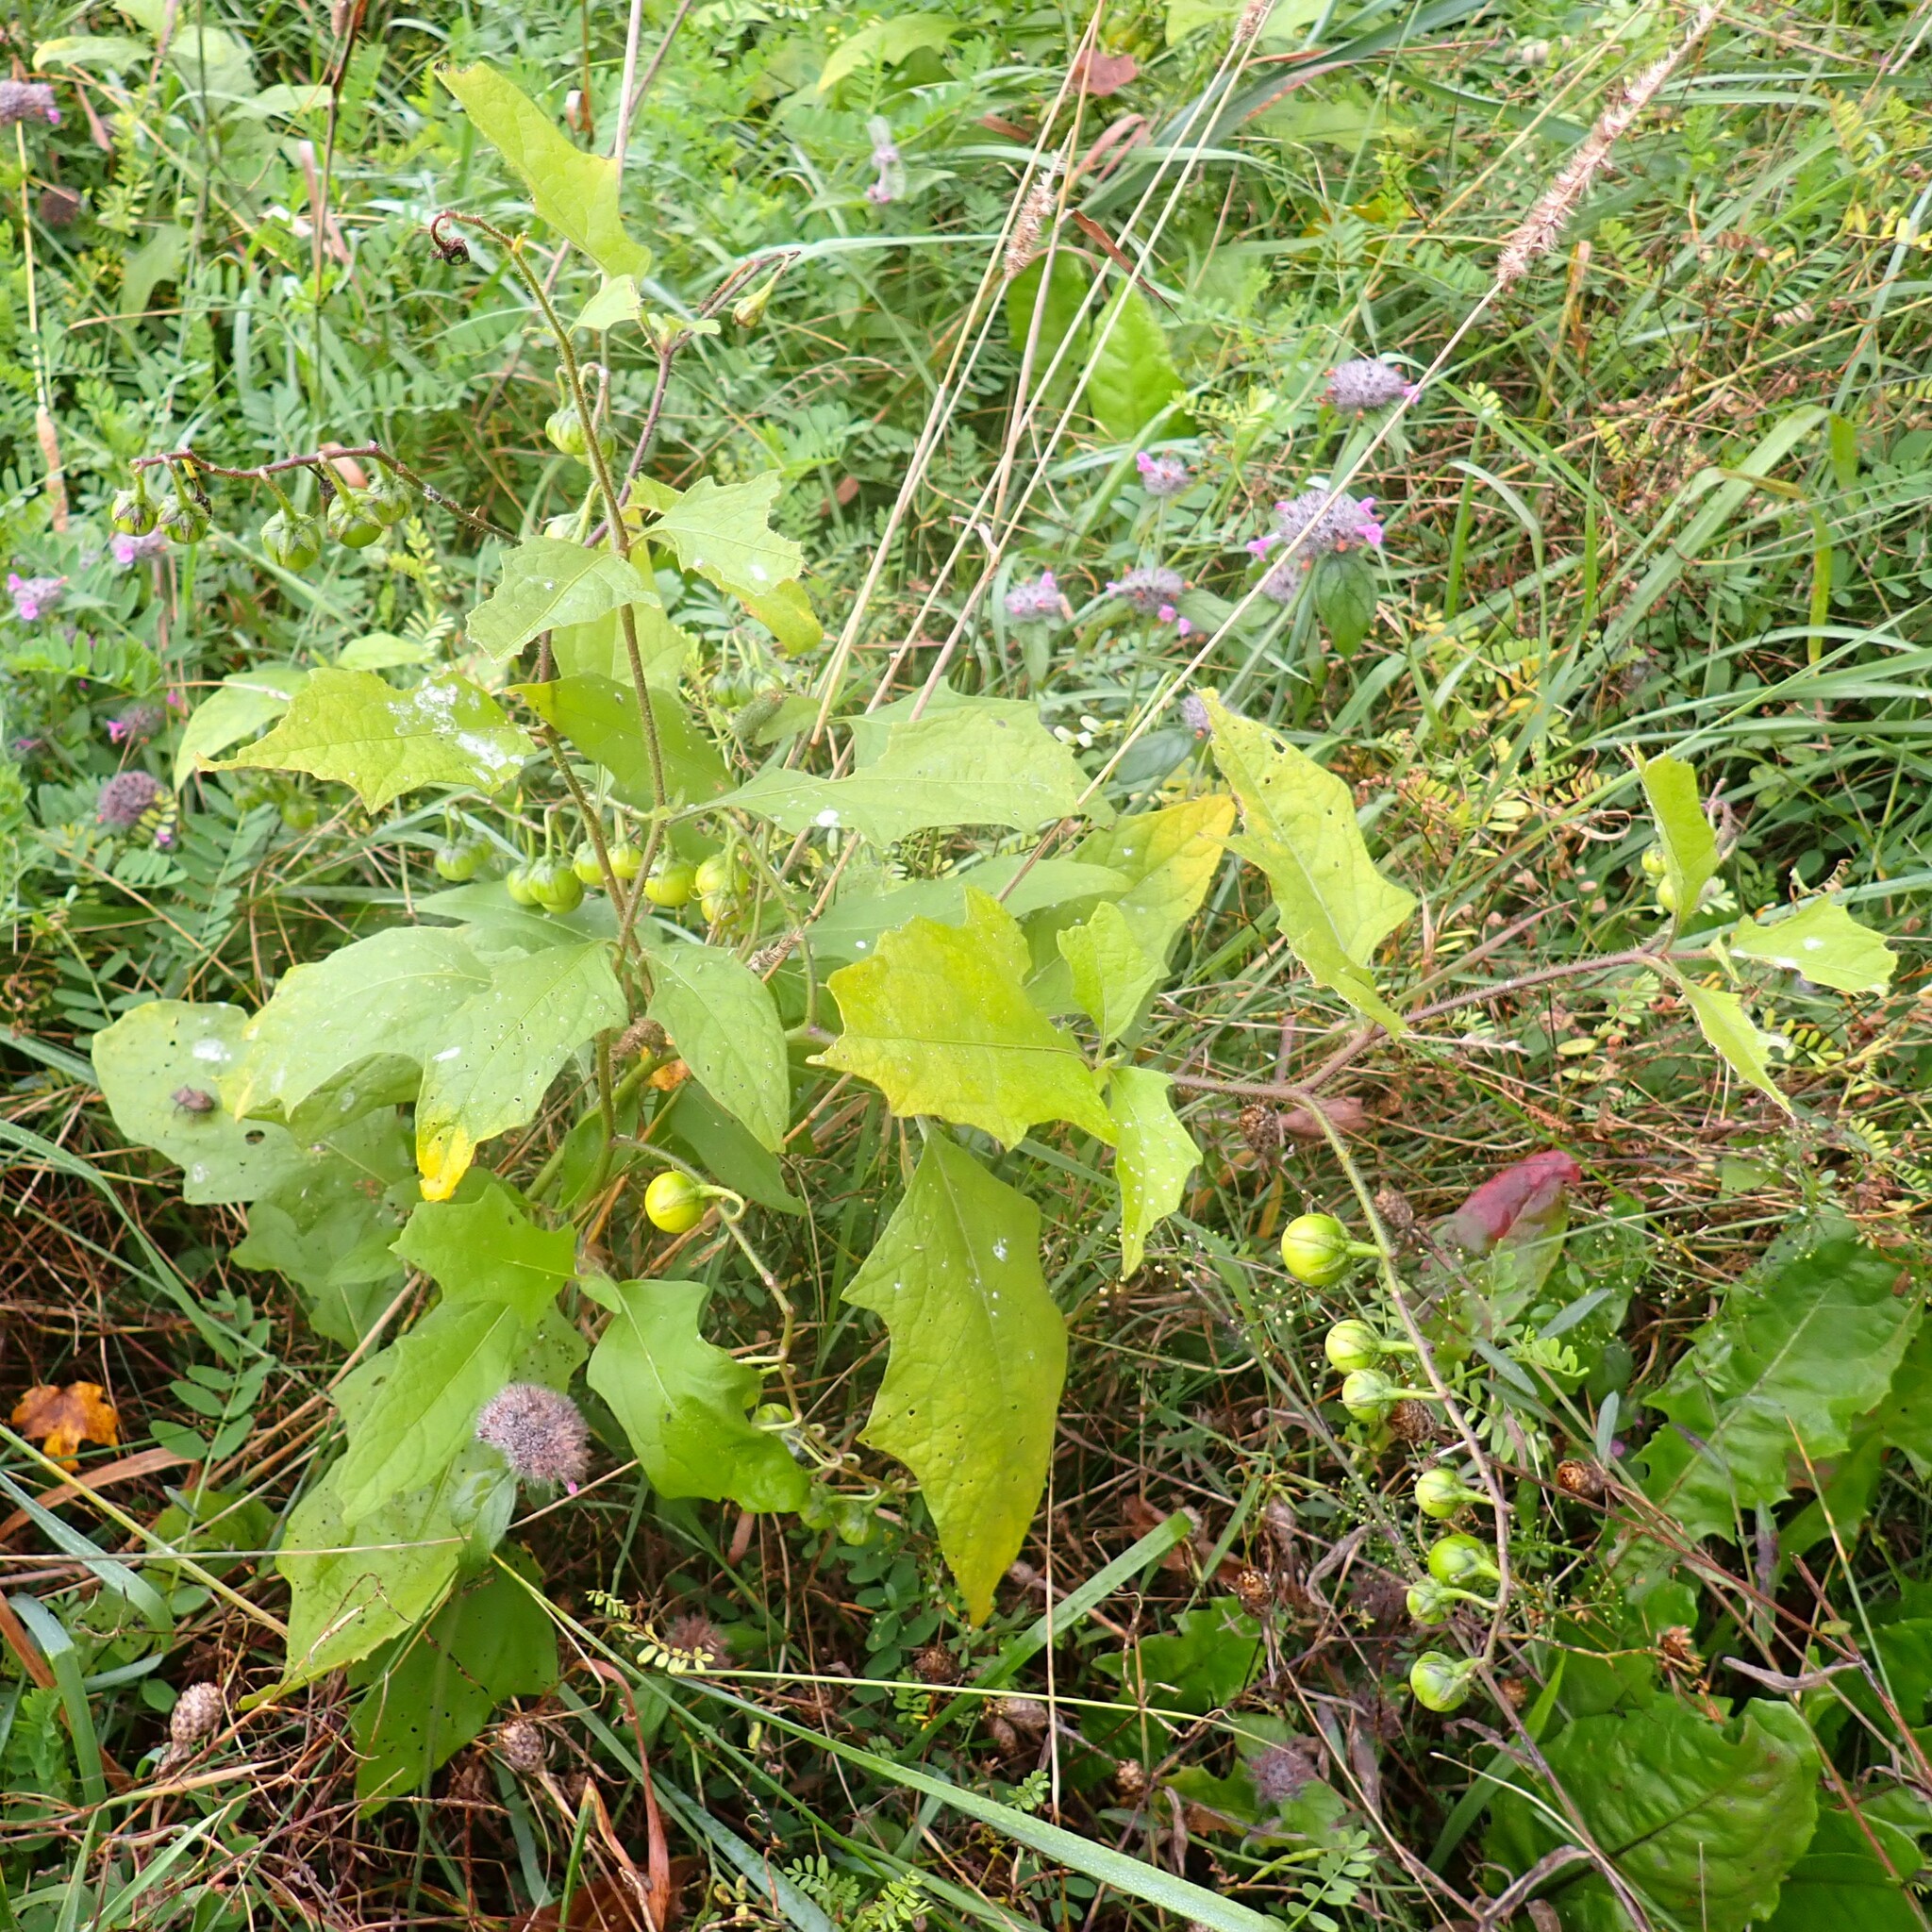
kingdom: Plantae
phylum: Tracheophyta
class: Magnoliopsida
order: Solanales
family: Solanaceae
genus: Solanum
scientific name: Solanum carolinense
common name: Horse-nettle
